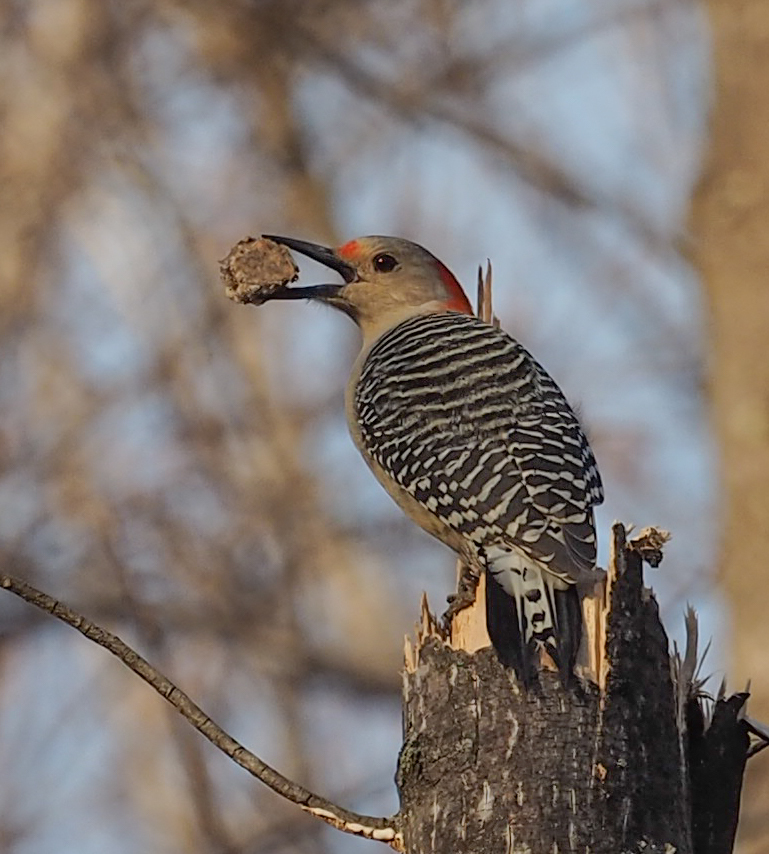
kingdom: Animalia
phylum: Chordata
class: Aves
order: Piciformes
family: Picidae
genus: Melanerpes
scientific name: Melanerpes carolinus
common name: Red-bellied woodpecker
